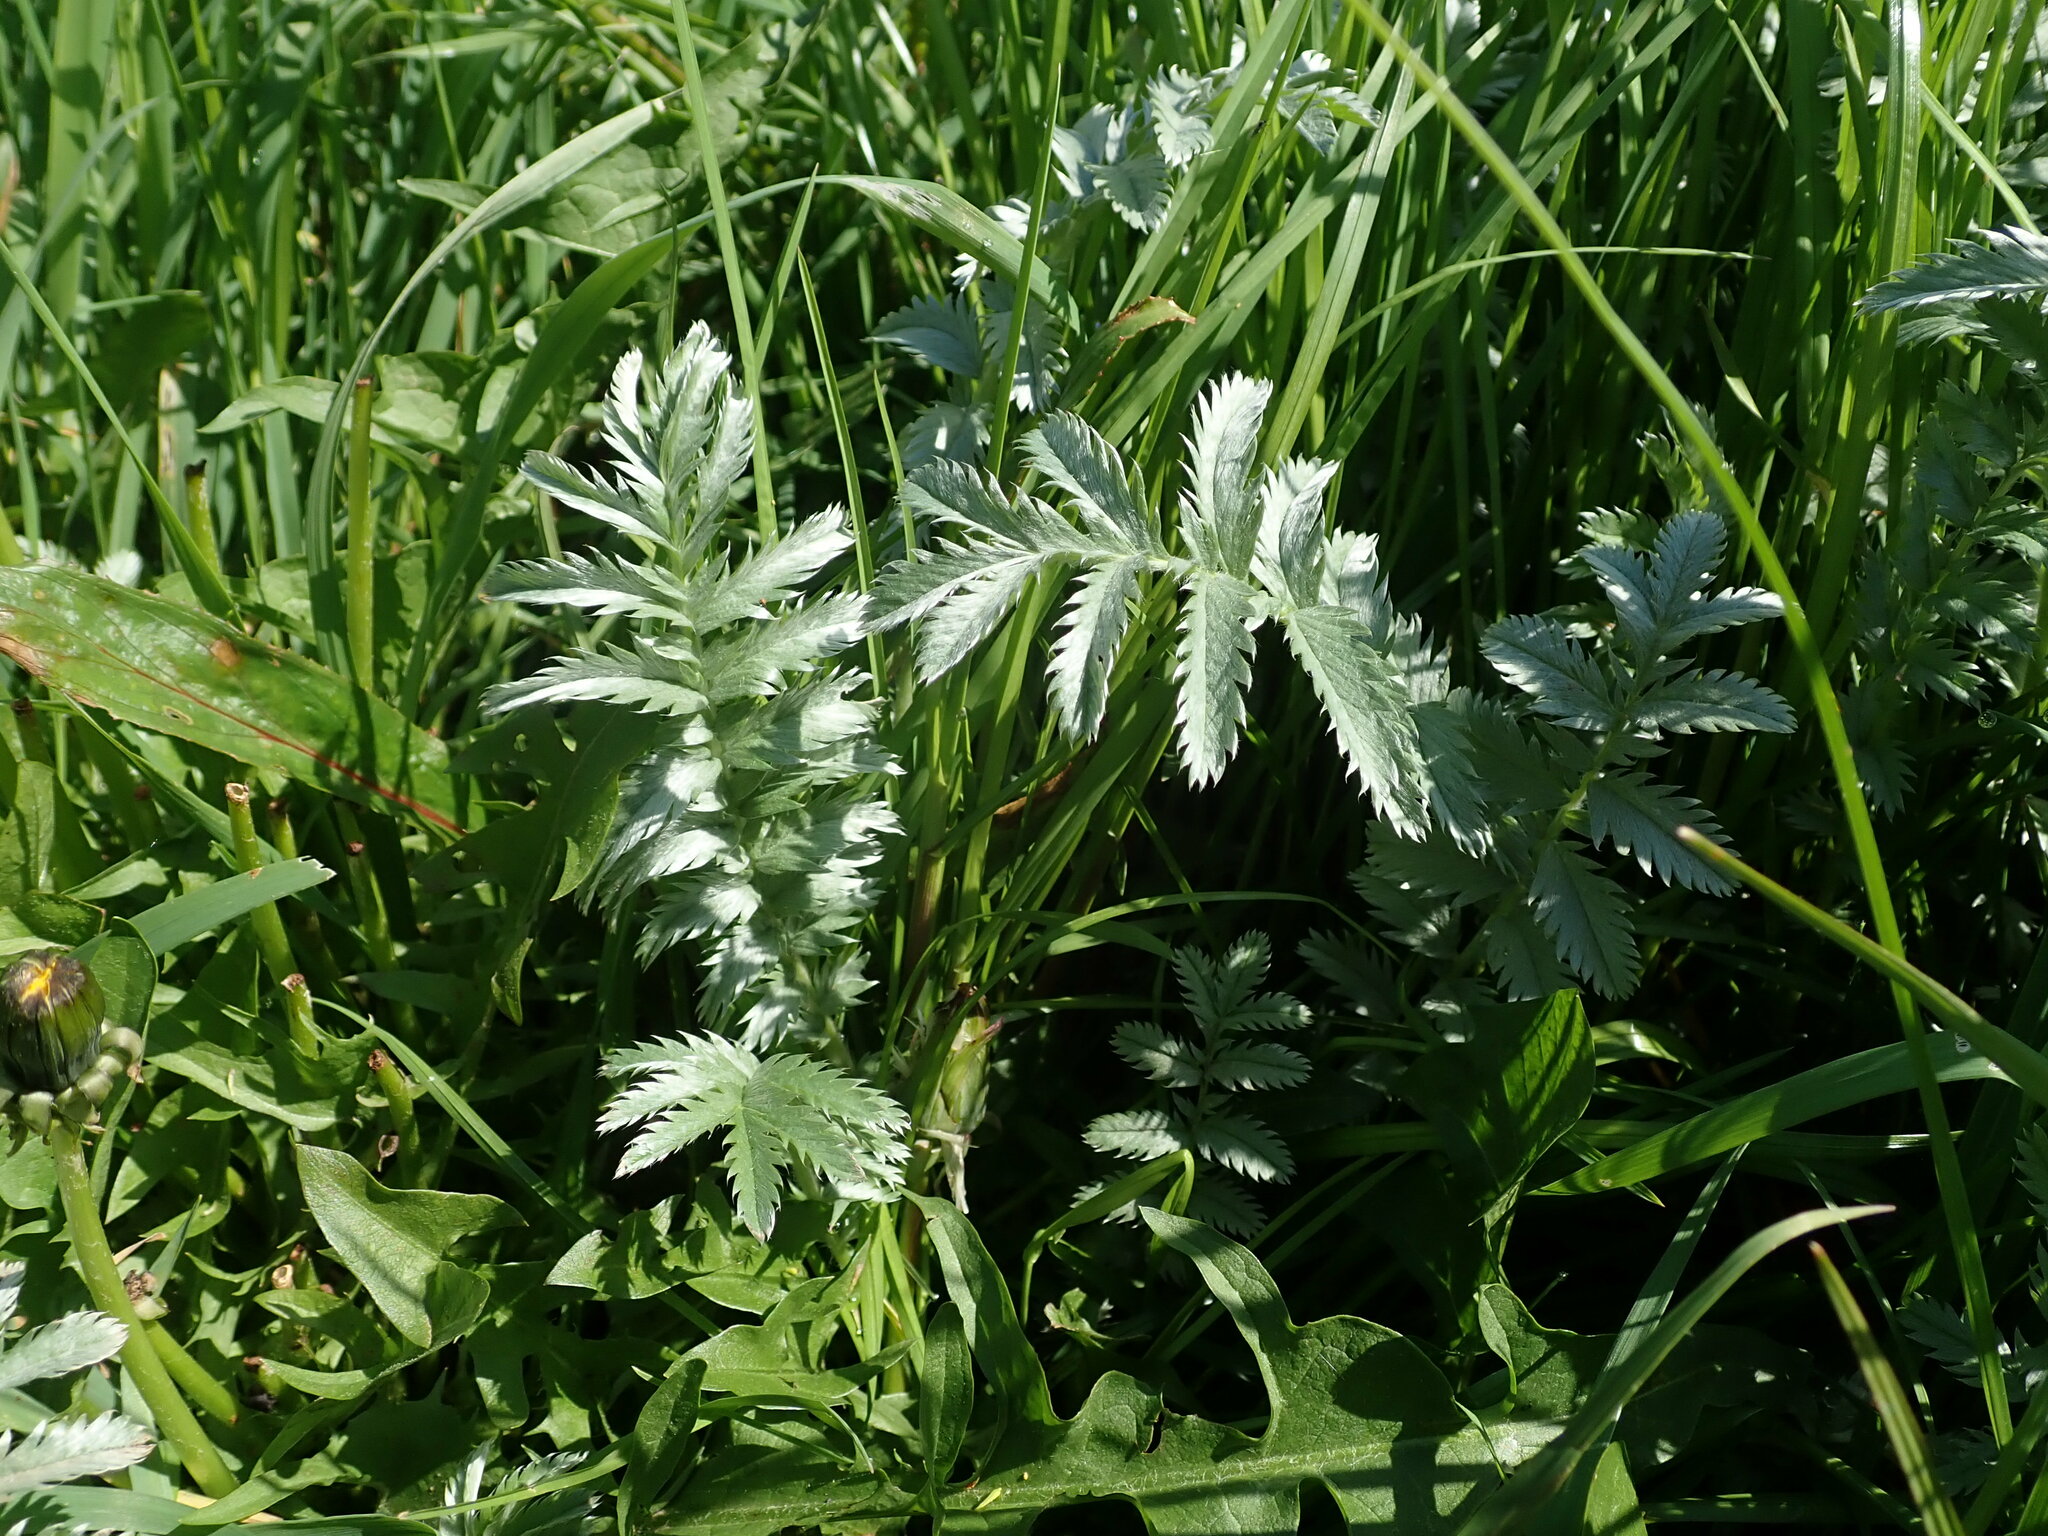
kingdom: Plantae
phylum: Tracheophyta
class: Magnoliopsida
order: Rosales
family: Rosaceae
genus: Argentina
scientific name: Argentina anserina
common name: Common silverweed
